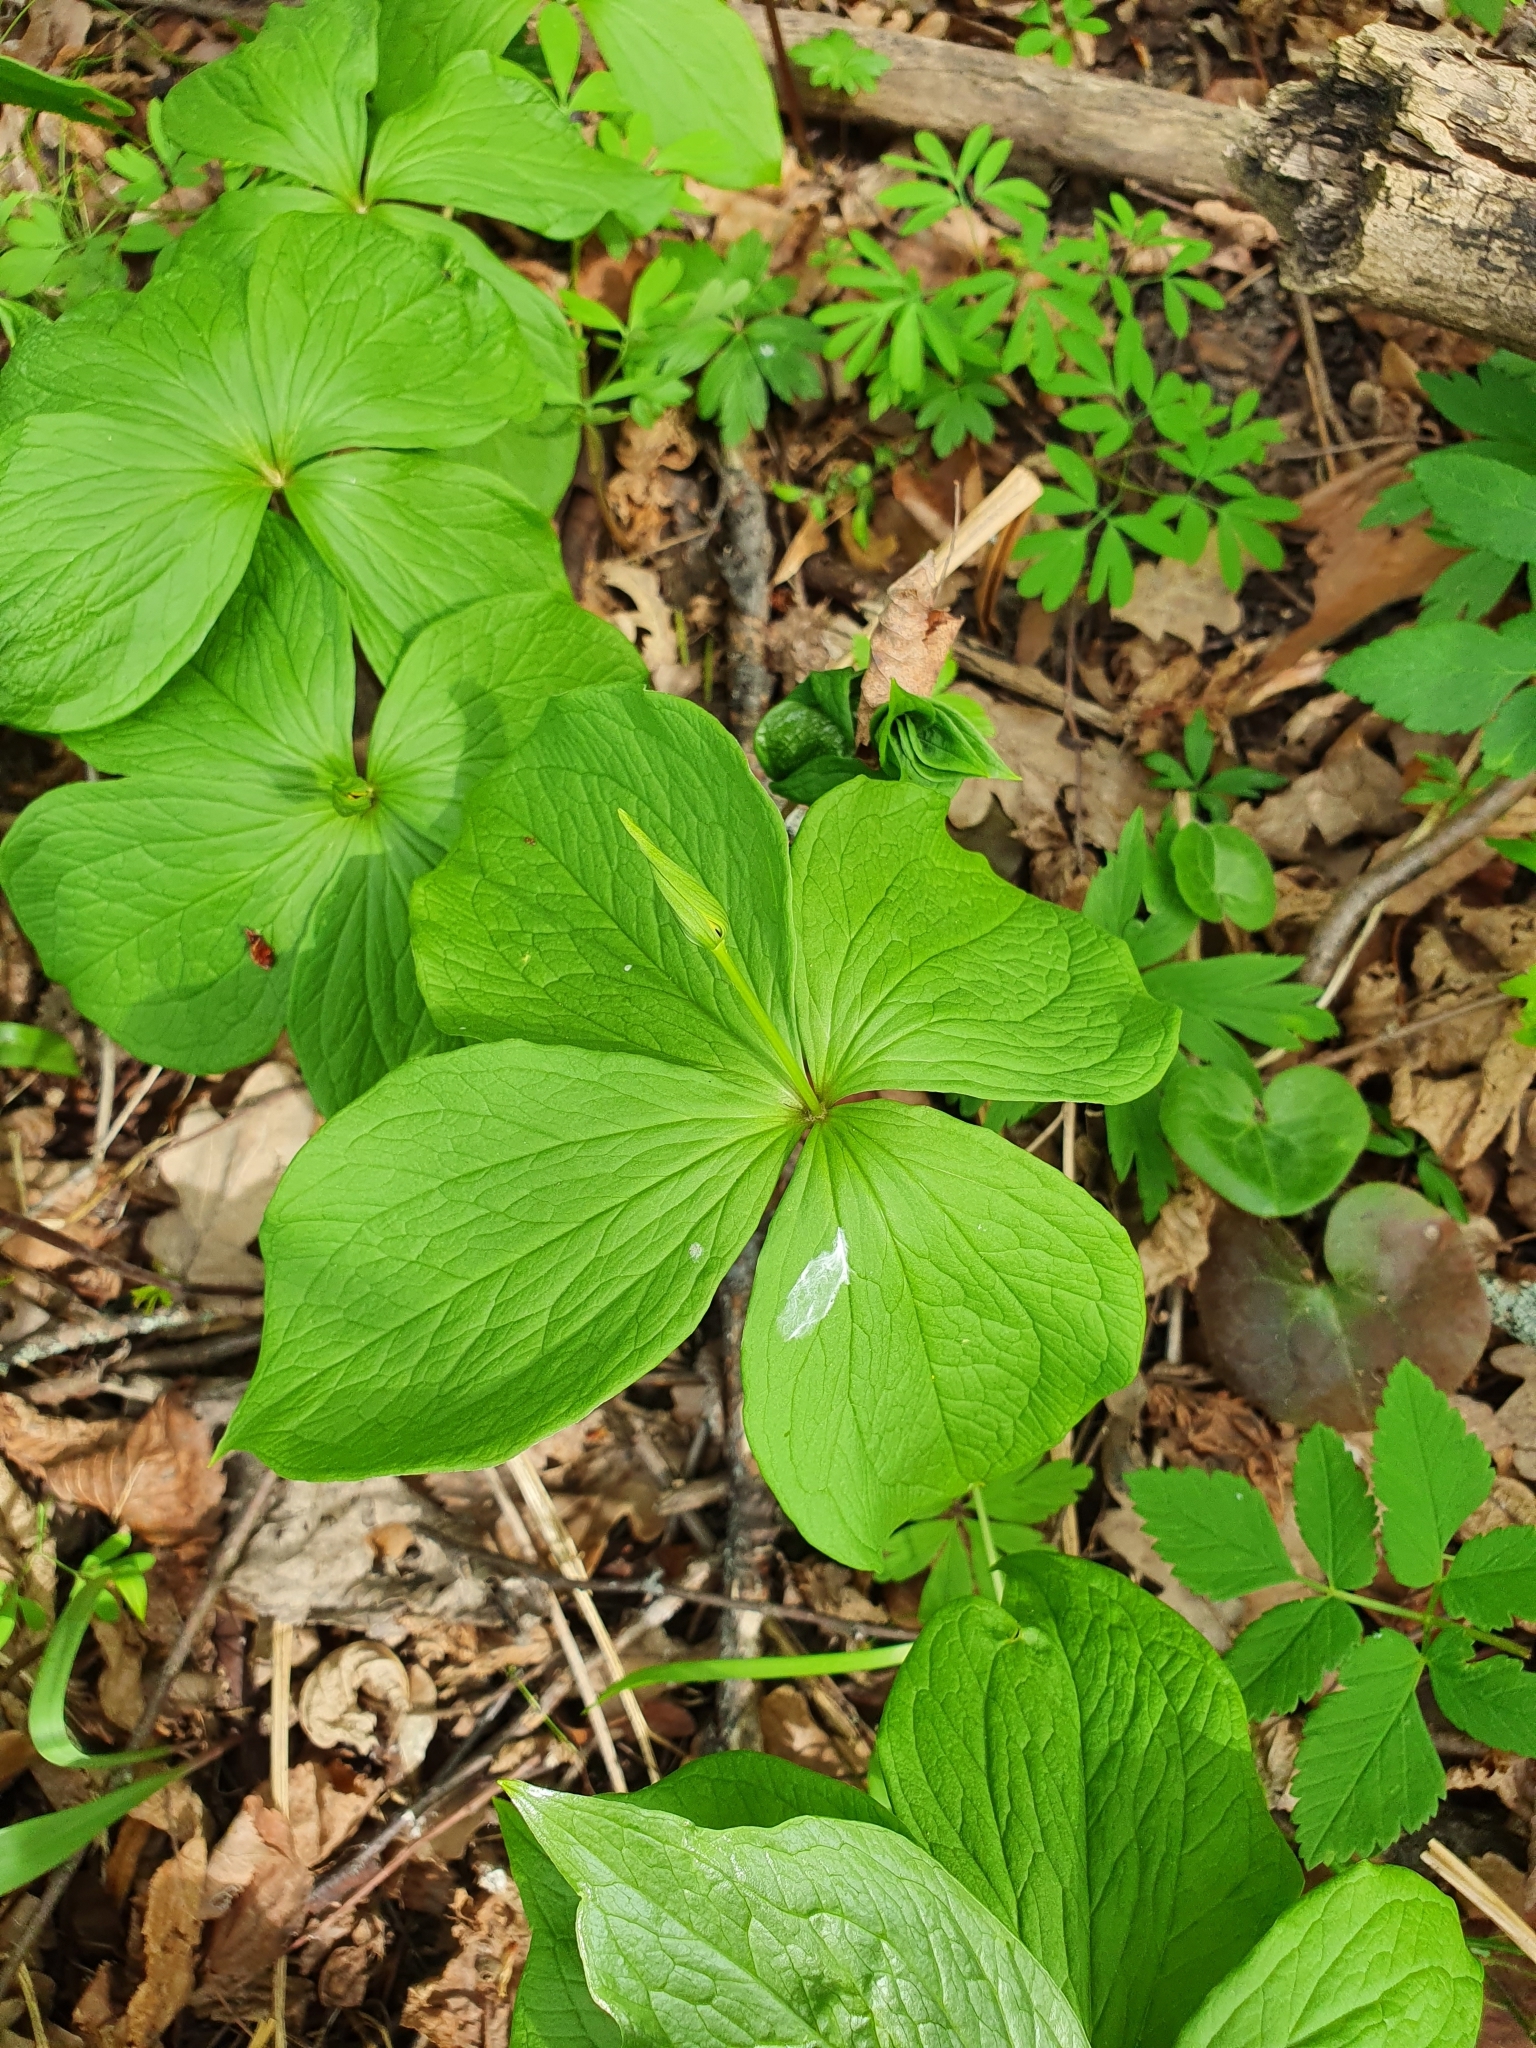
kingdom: Plantae
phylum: Tracheophyta
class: Liliopsida
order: Liliales
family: Melanthiaceae
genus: Paris
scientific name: Paris quadrifolia
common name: Herb-paris
